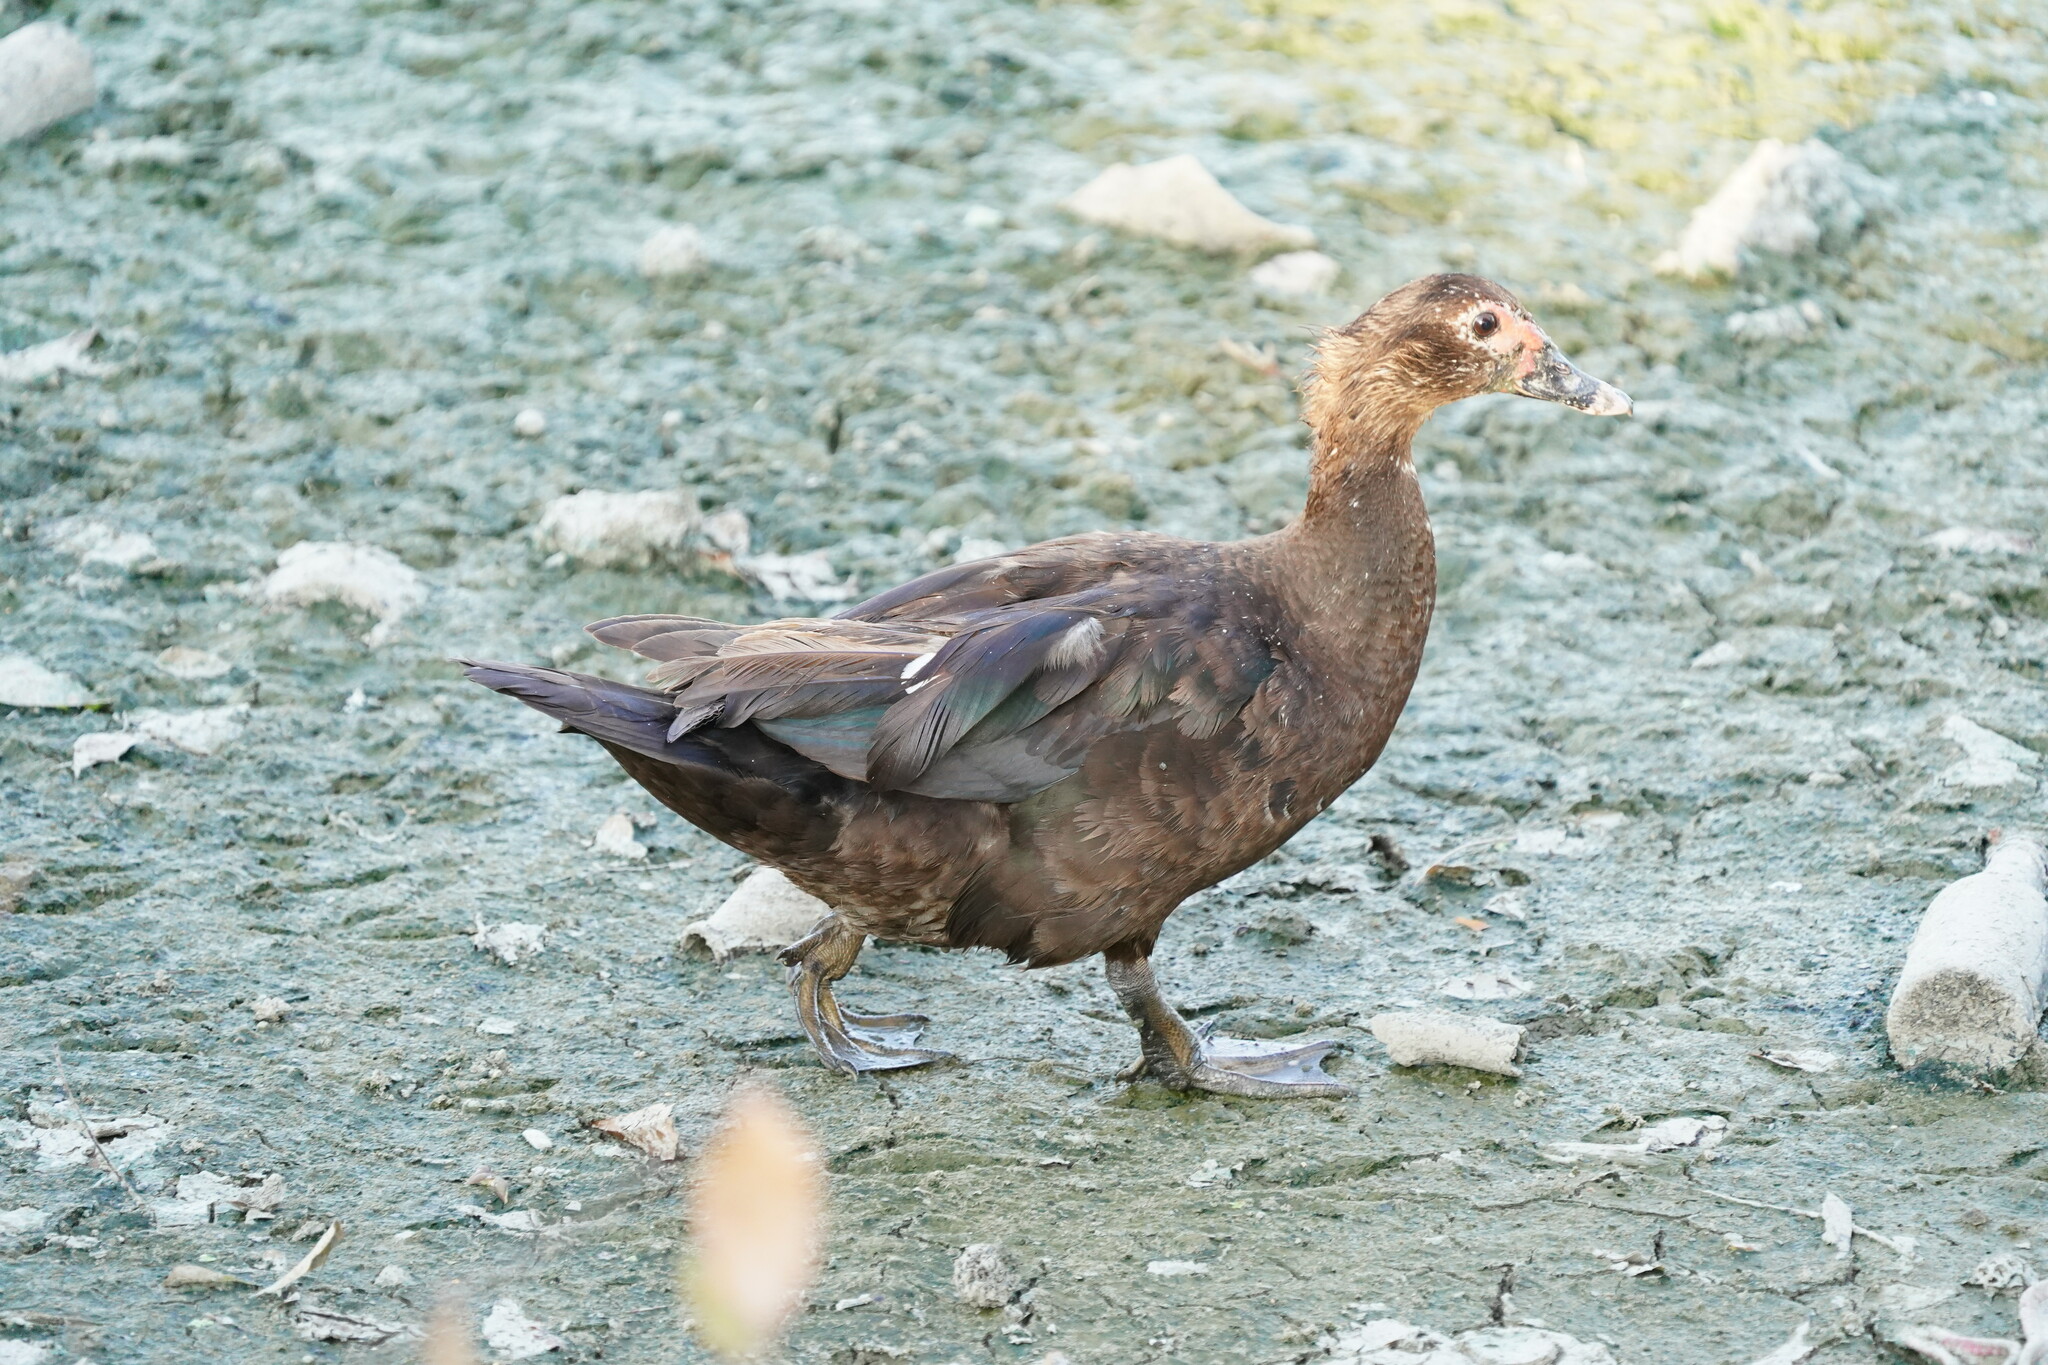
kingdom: Animalia
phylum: Chordata
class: Aves
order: Anseriformes
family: Anatidae
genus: Cairina
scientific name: Cairina moschata
